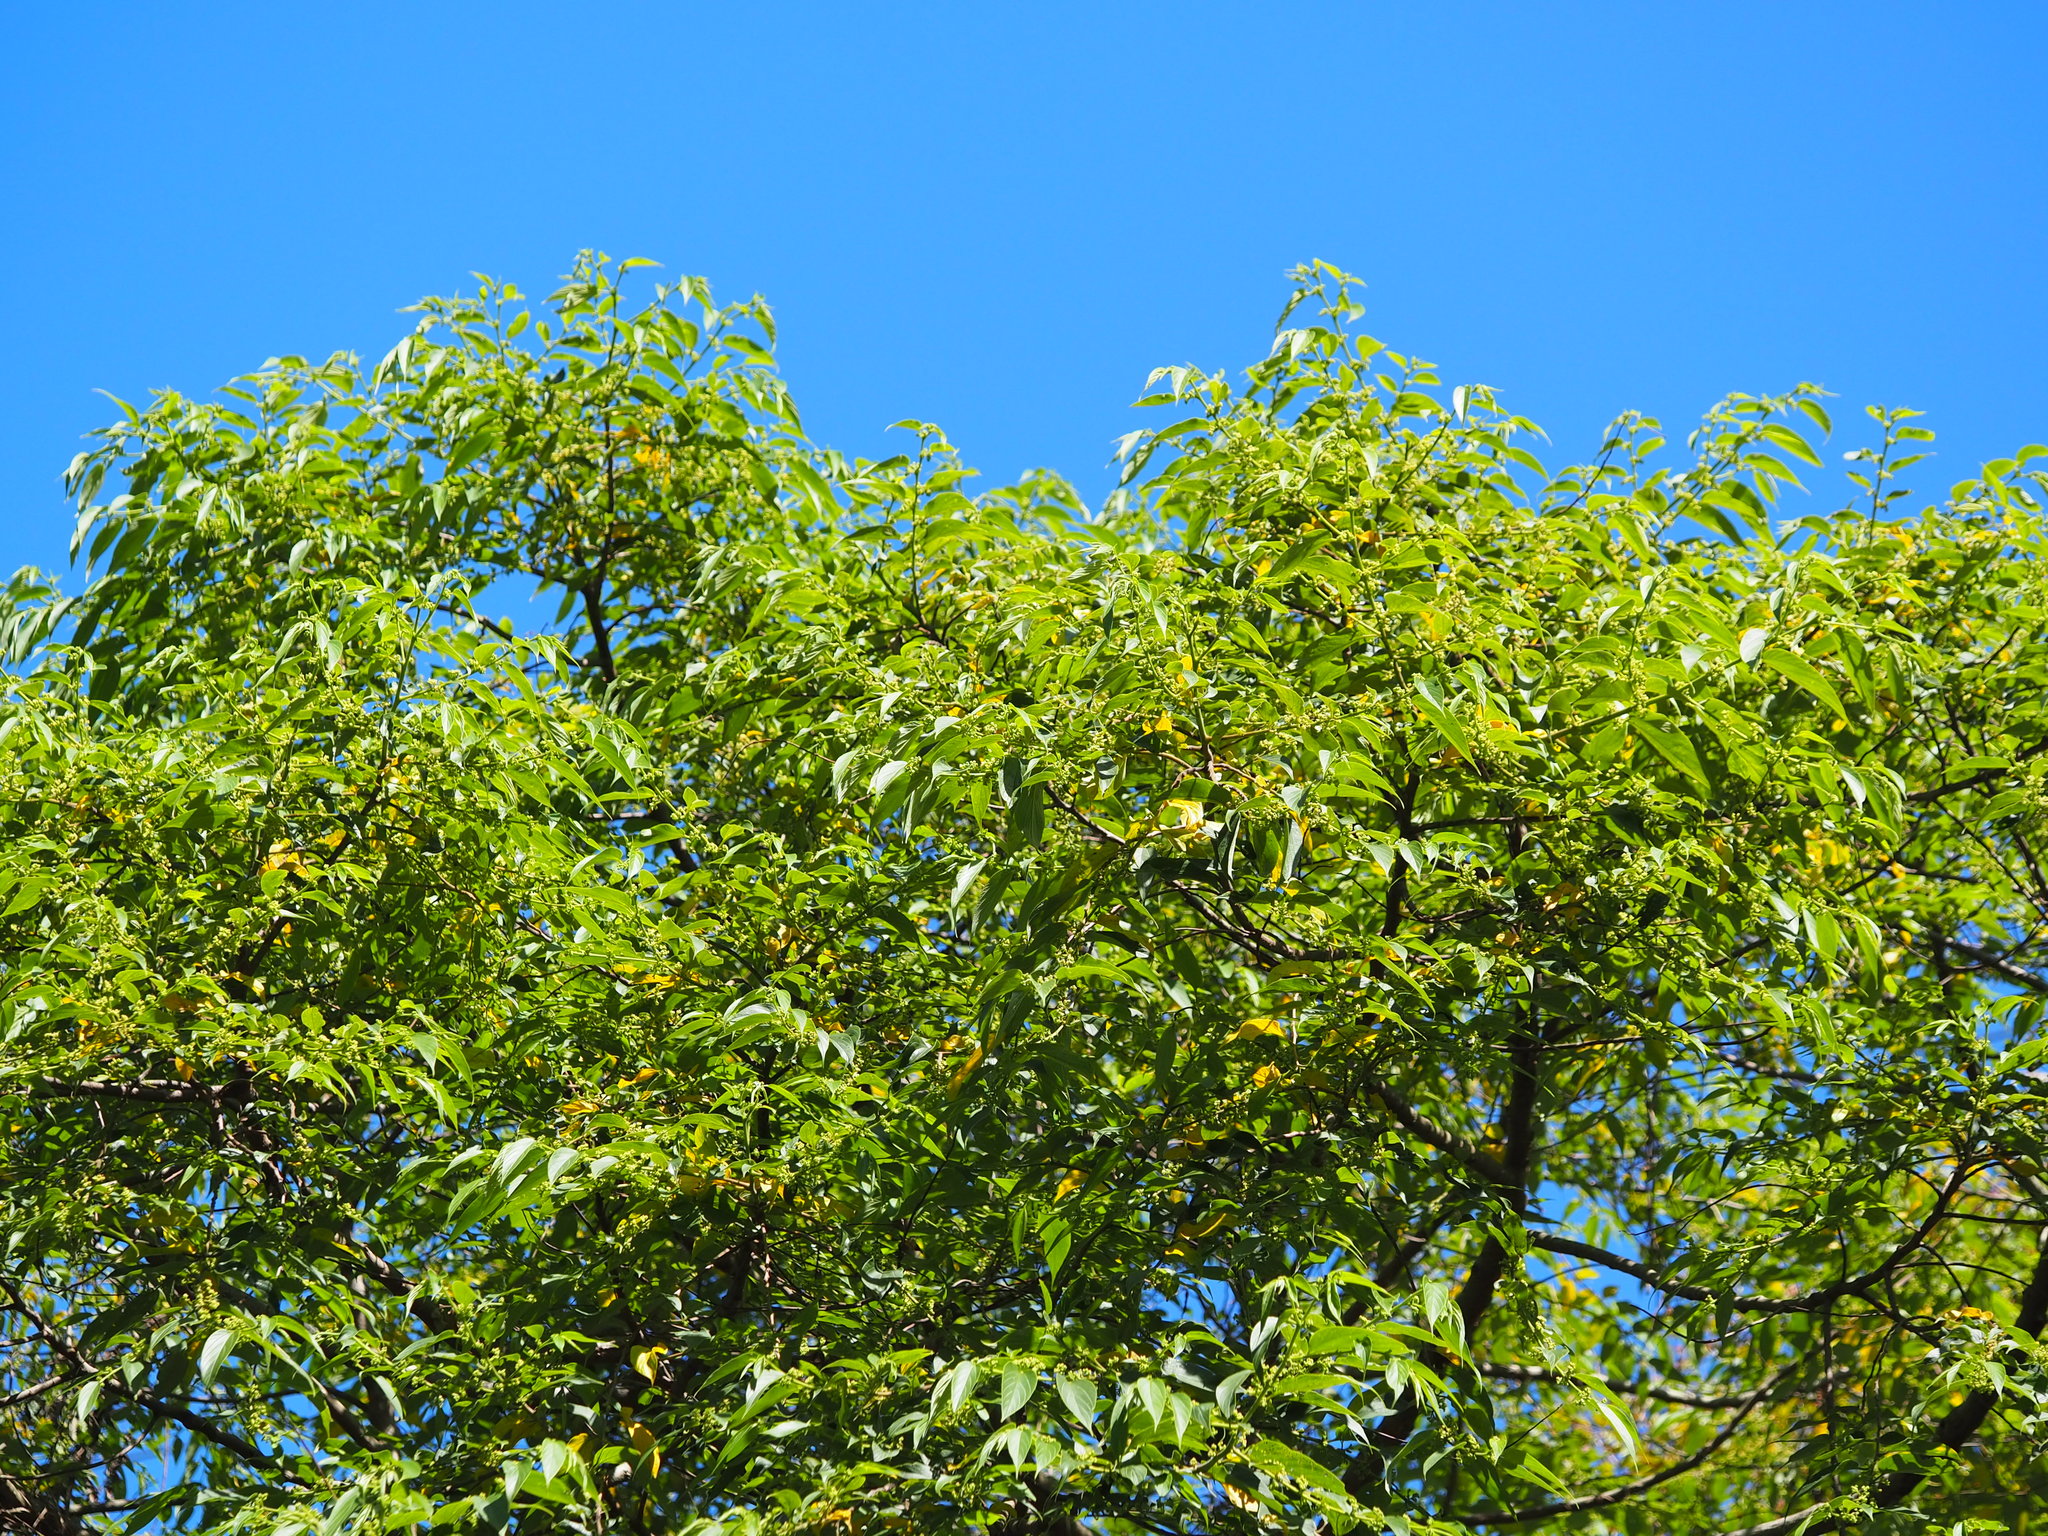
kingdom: Plantae
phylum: Tracheophyta
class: Magnoliopsida
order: Rosales
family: Cannabaceae
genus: Trema
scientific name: Trema orientale
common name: Indian charcoal tree
